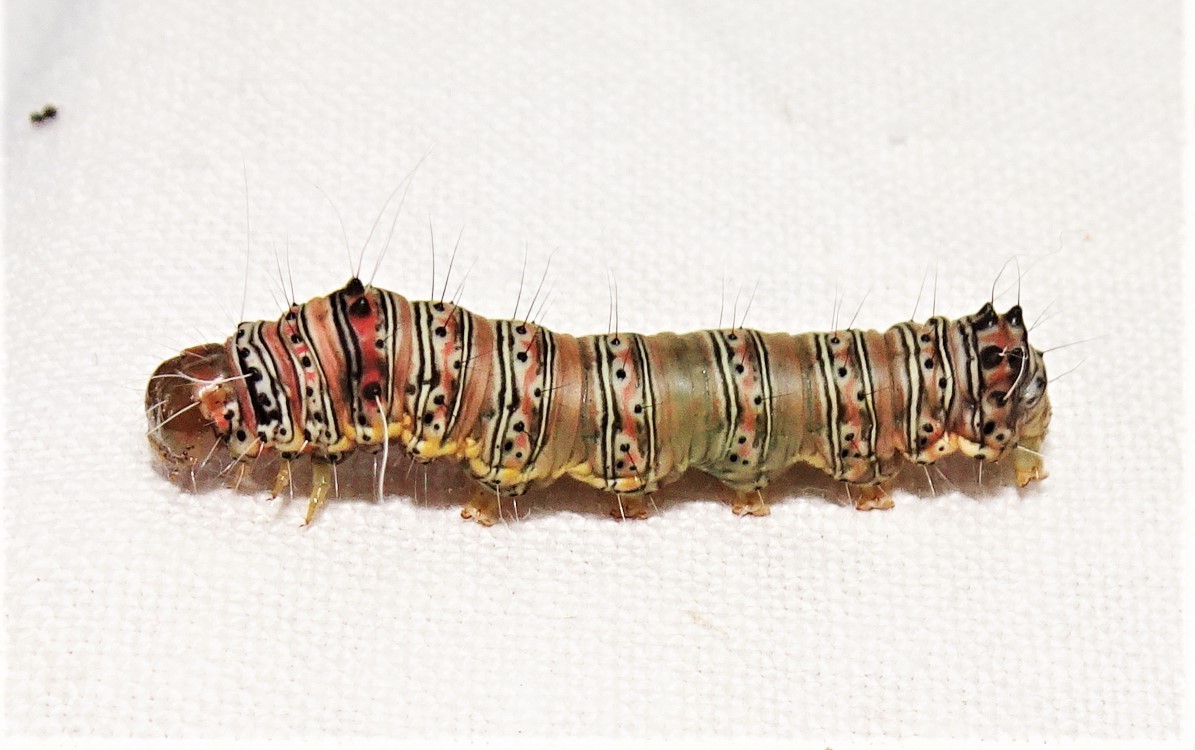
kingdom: Animalia
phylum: Arthropoda
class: Insecta
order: Lepidoptera
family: Noctuidae
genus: Coenotoca
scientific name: Coenotoca subaspersa
